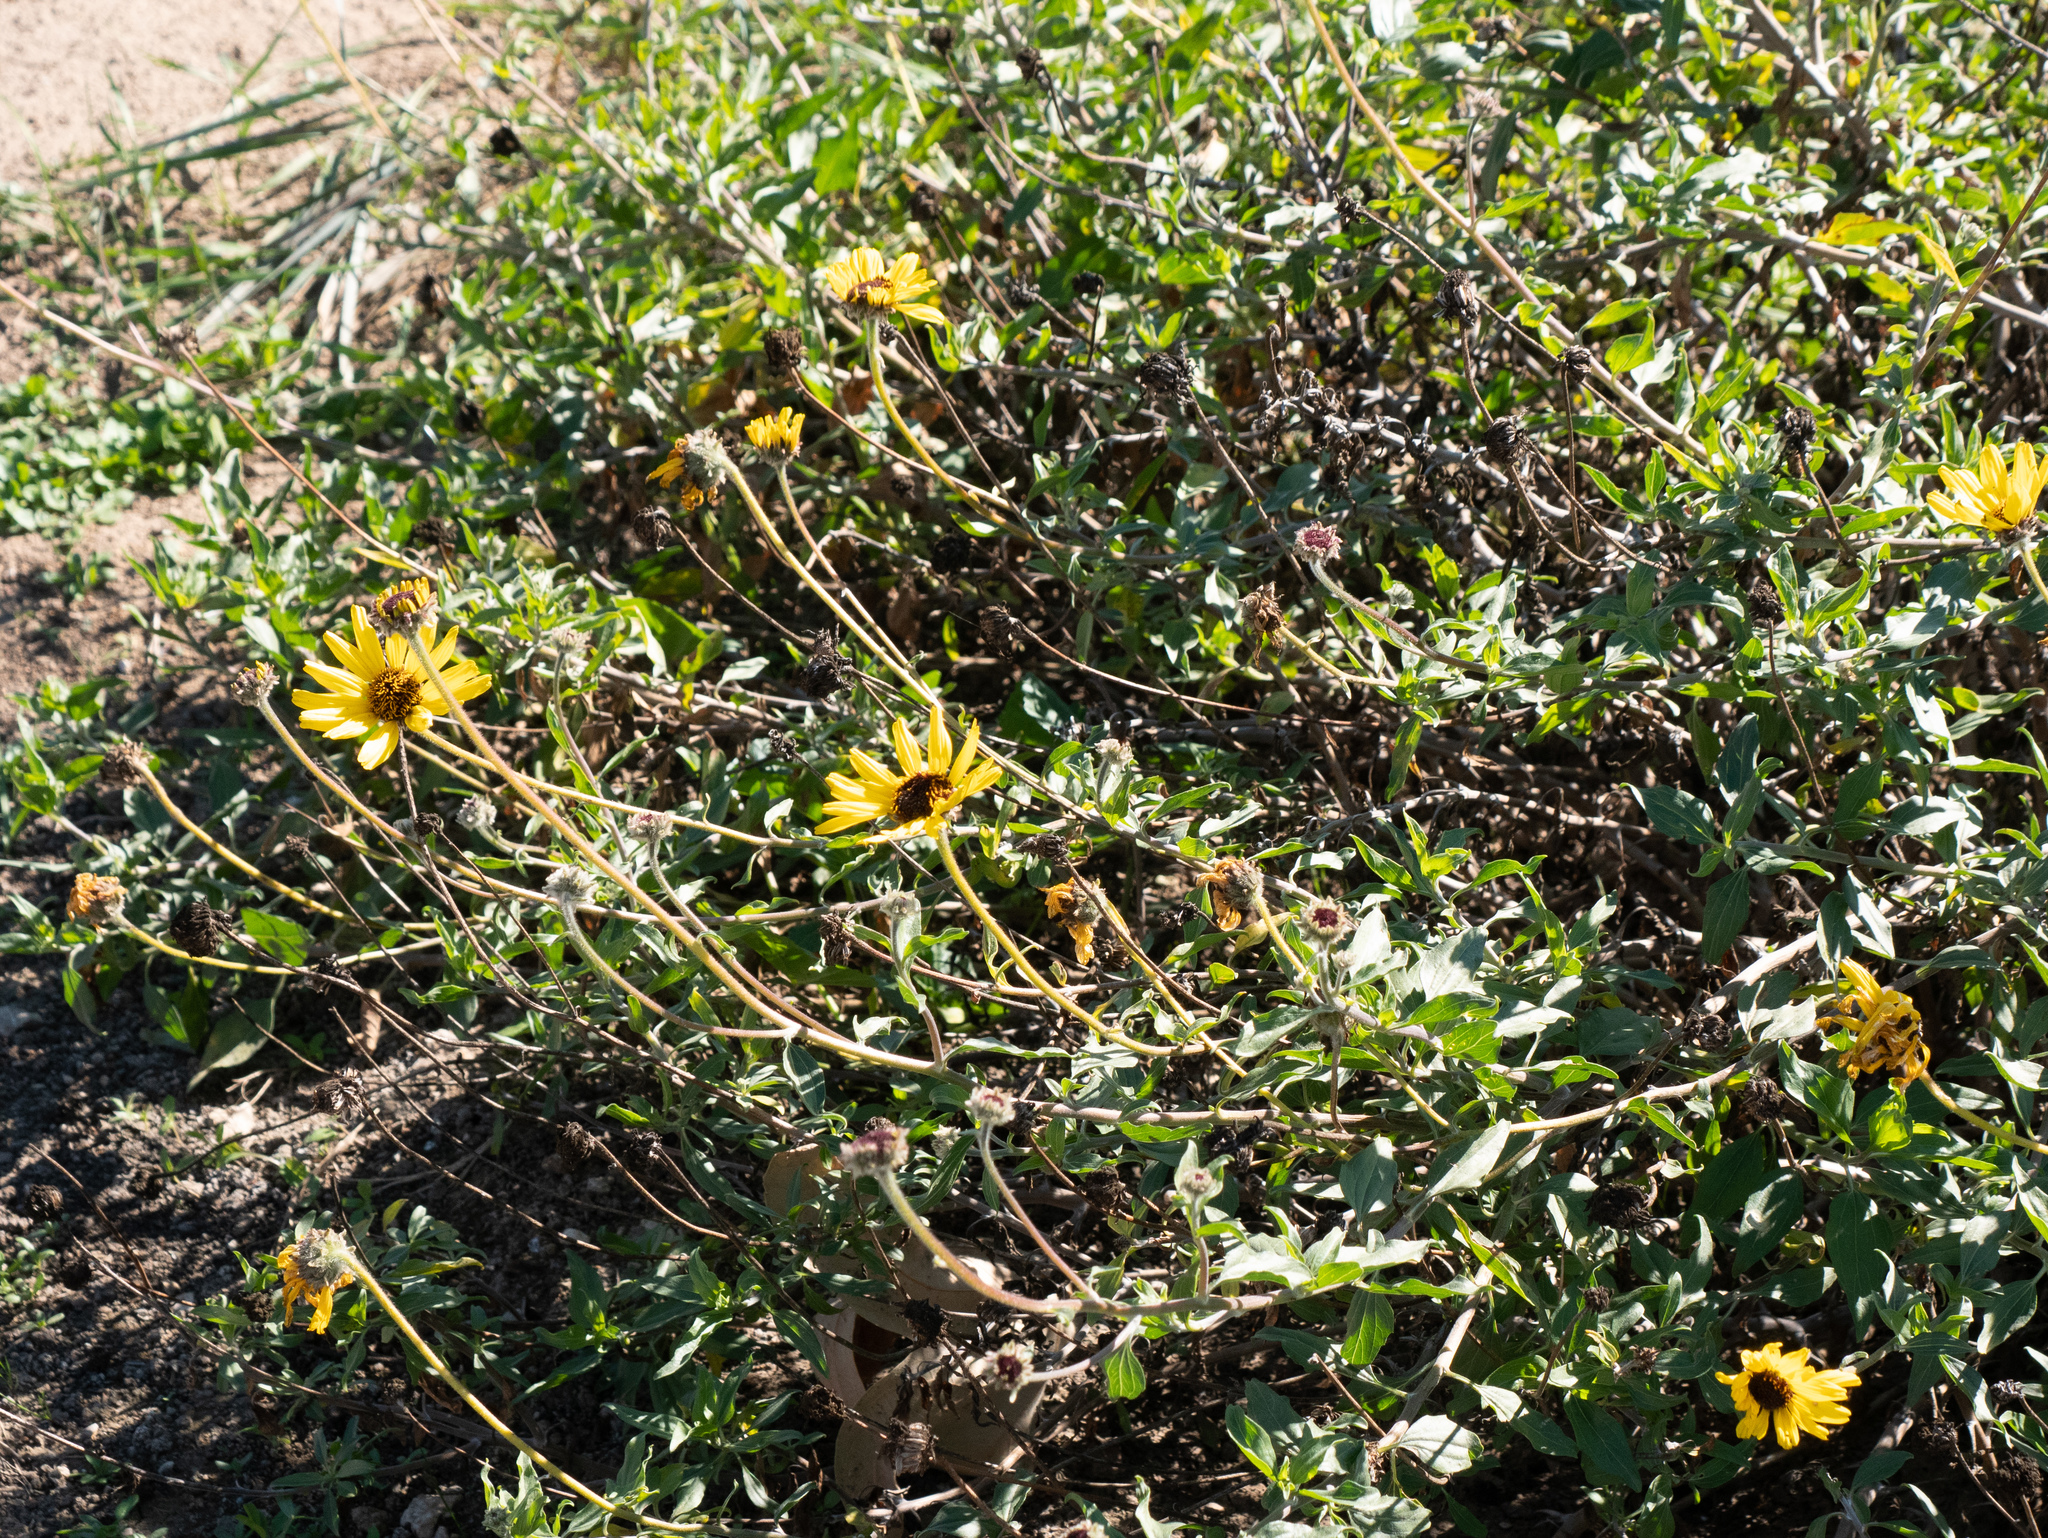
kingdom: Plantae
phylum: Tracheophyta
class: Magnoliopsida
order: Asterales
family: Asteraceae
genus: Encelia
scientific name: Encelia californica
